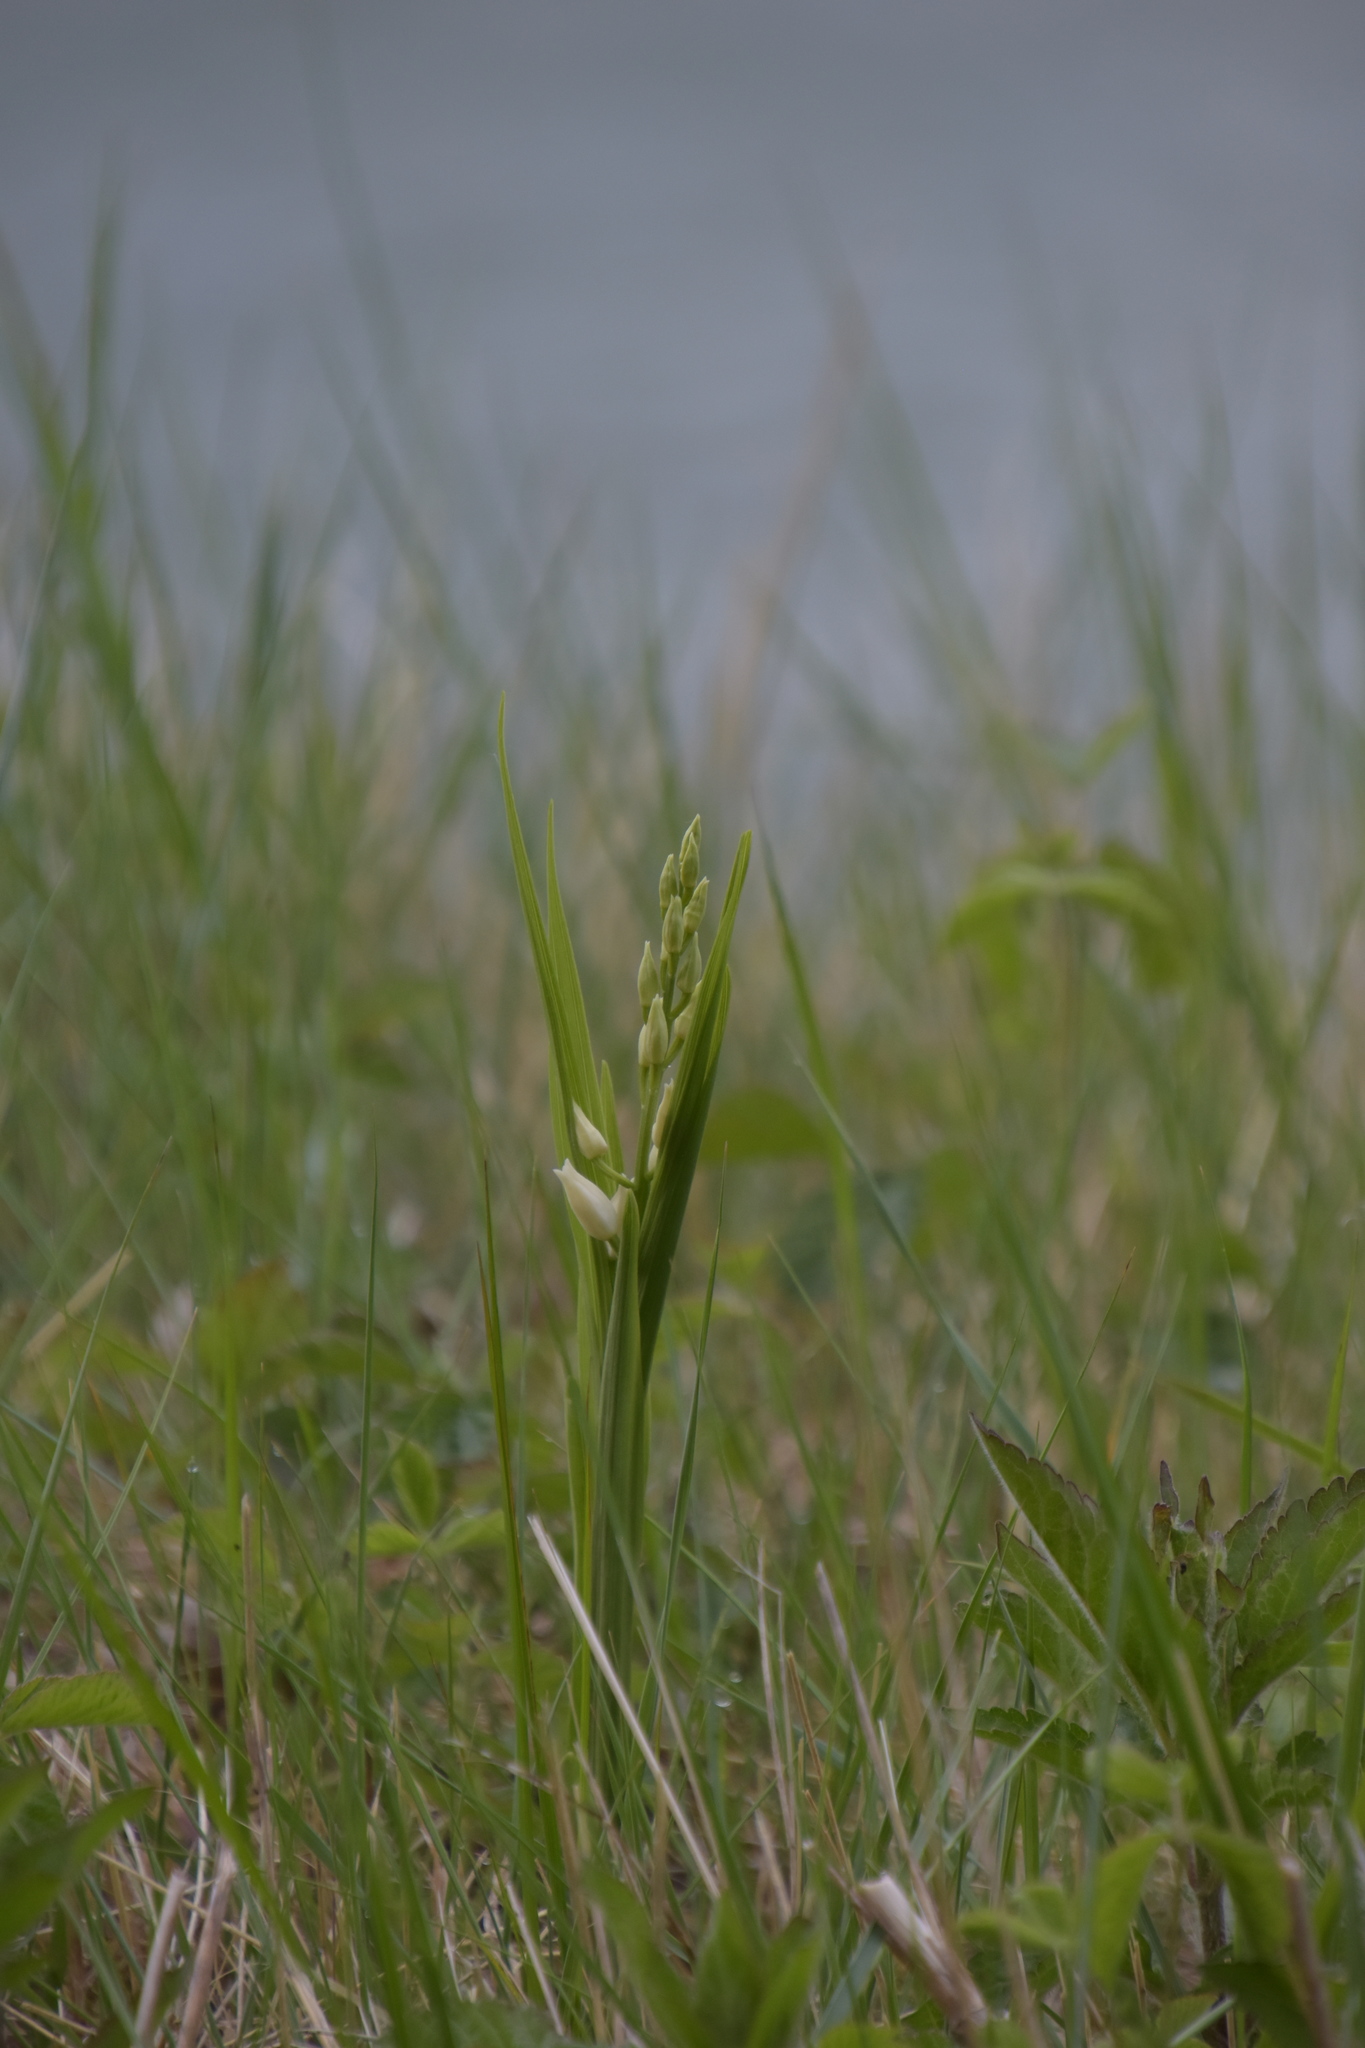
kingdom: Plantae
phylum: Tracheophyta
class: Liliopsida
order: Asparagales
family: Orchidaceae
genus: Cephalanthera
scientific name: Cephalanthera longifolia
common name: Narrow-leaved helleborine
